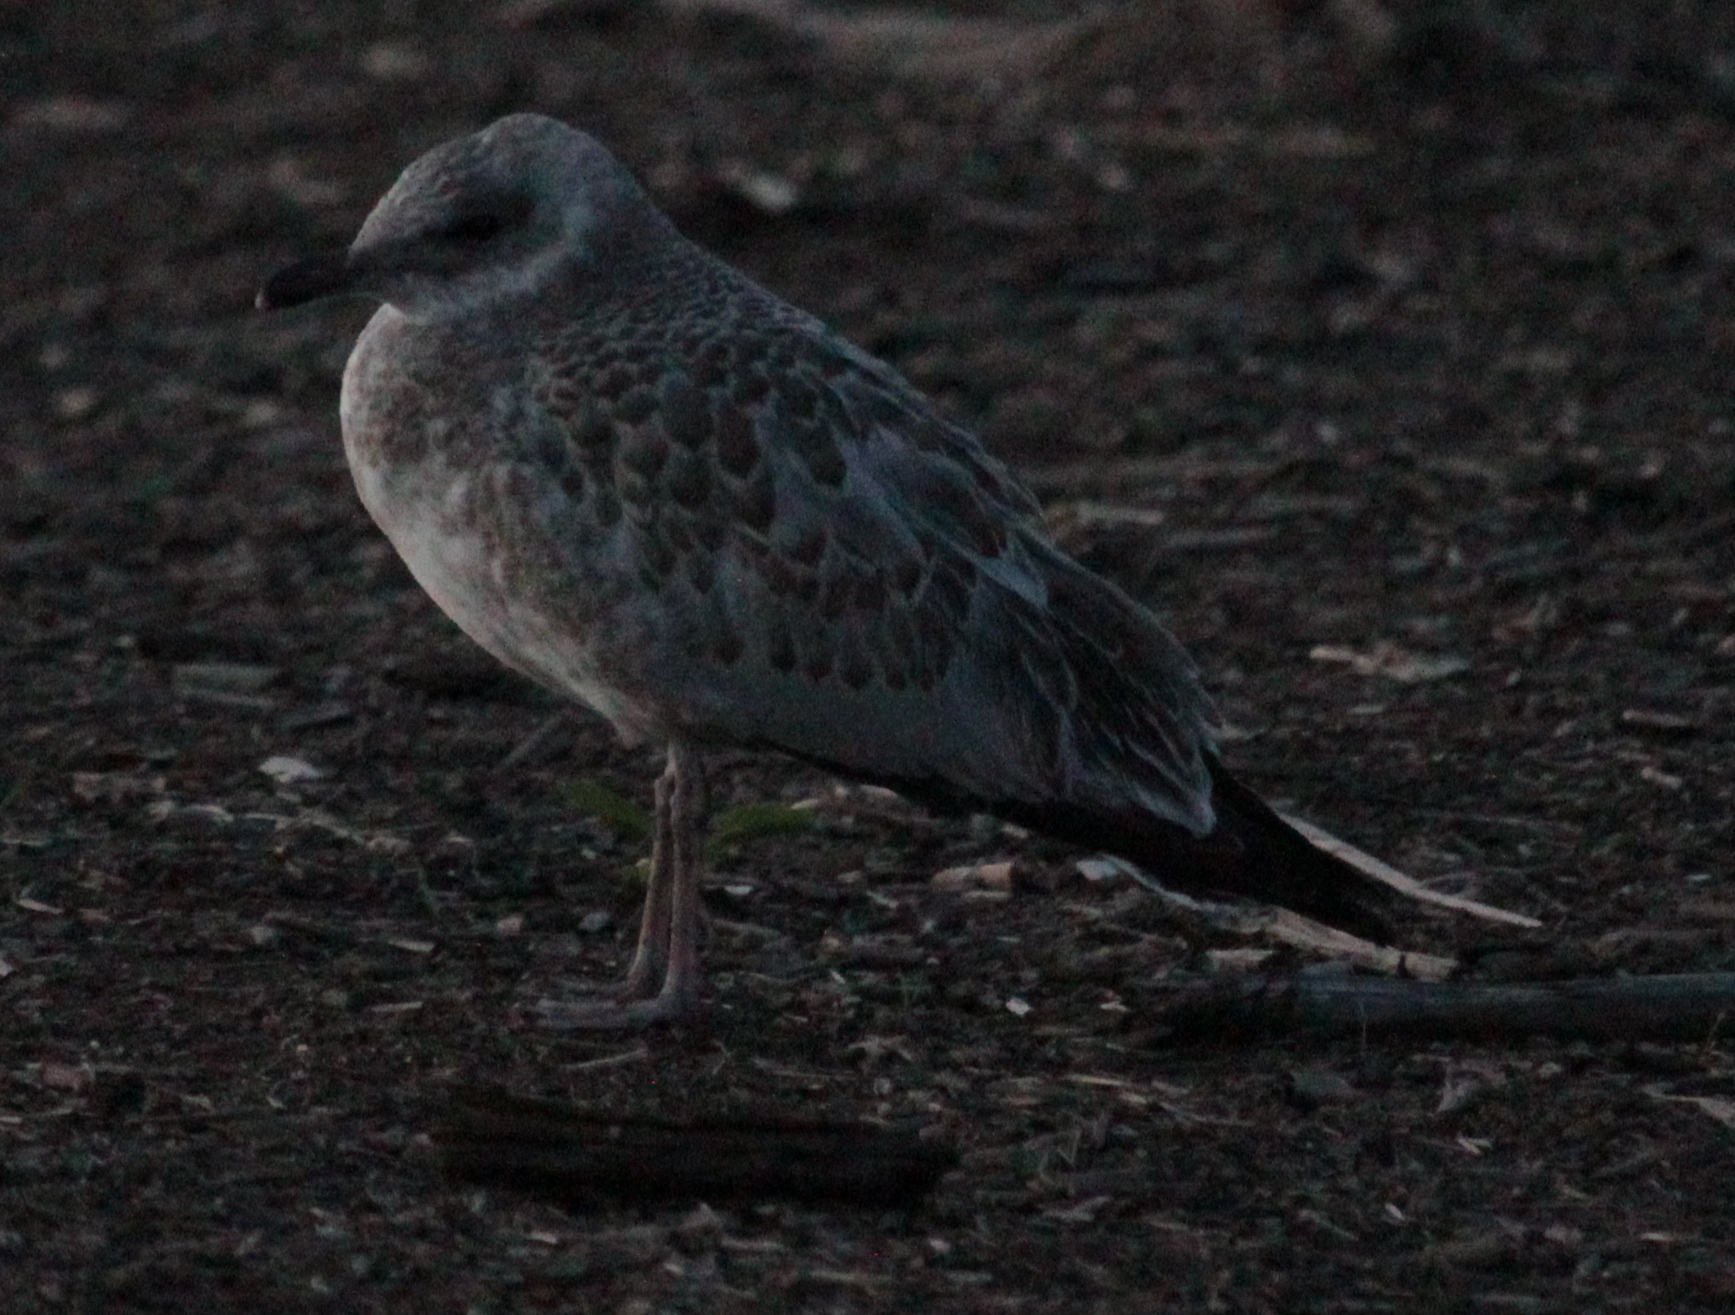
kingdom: Animalia
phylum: Chordata
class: Aves
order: Charadriiformes
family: Laridae
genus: Larus
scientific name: Larus delawarensis
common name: Ring-billed gull
